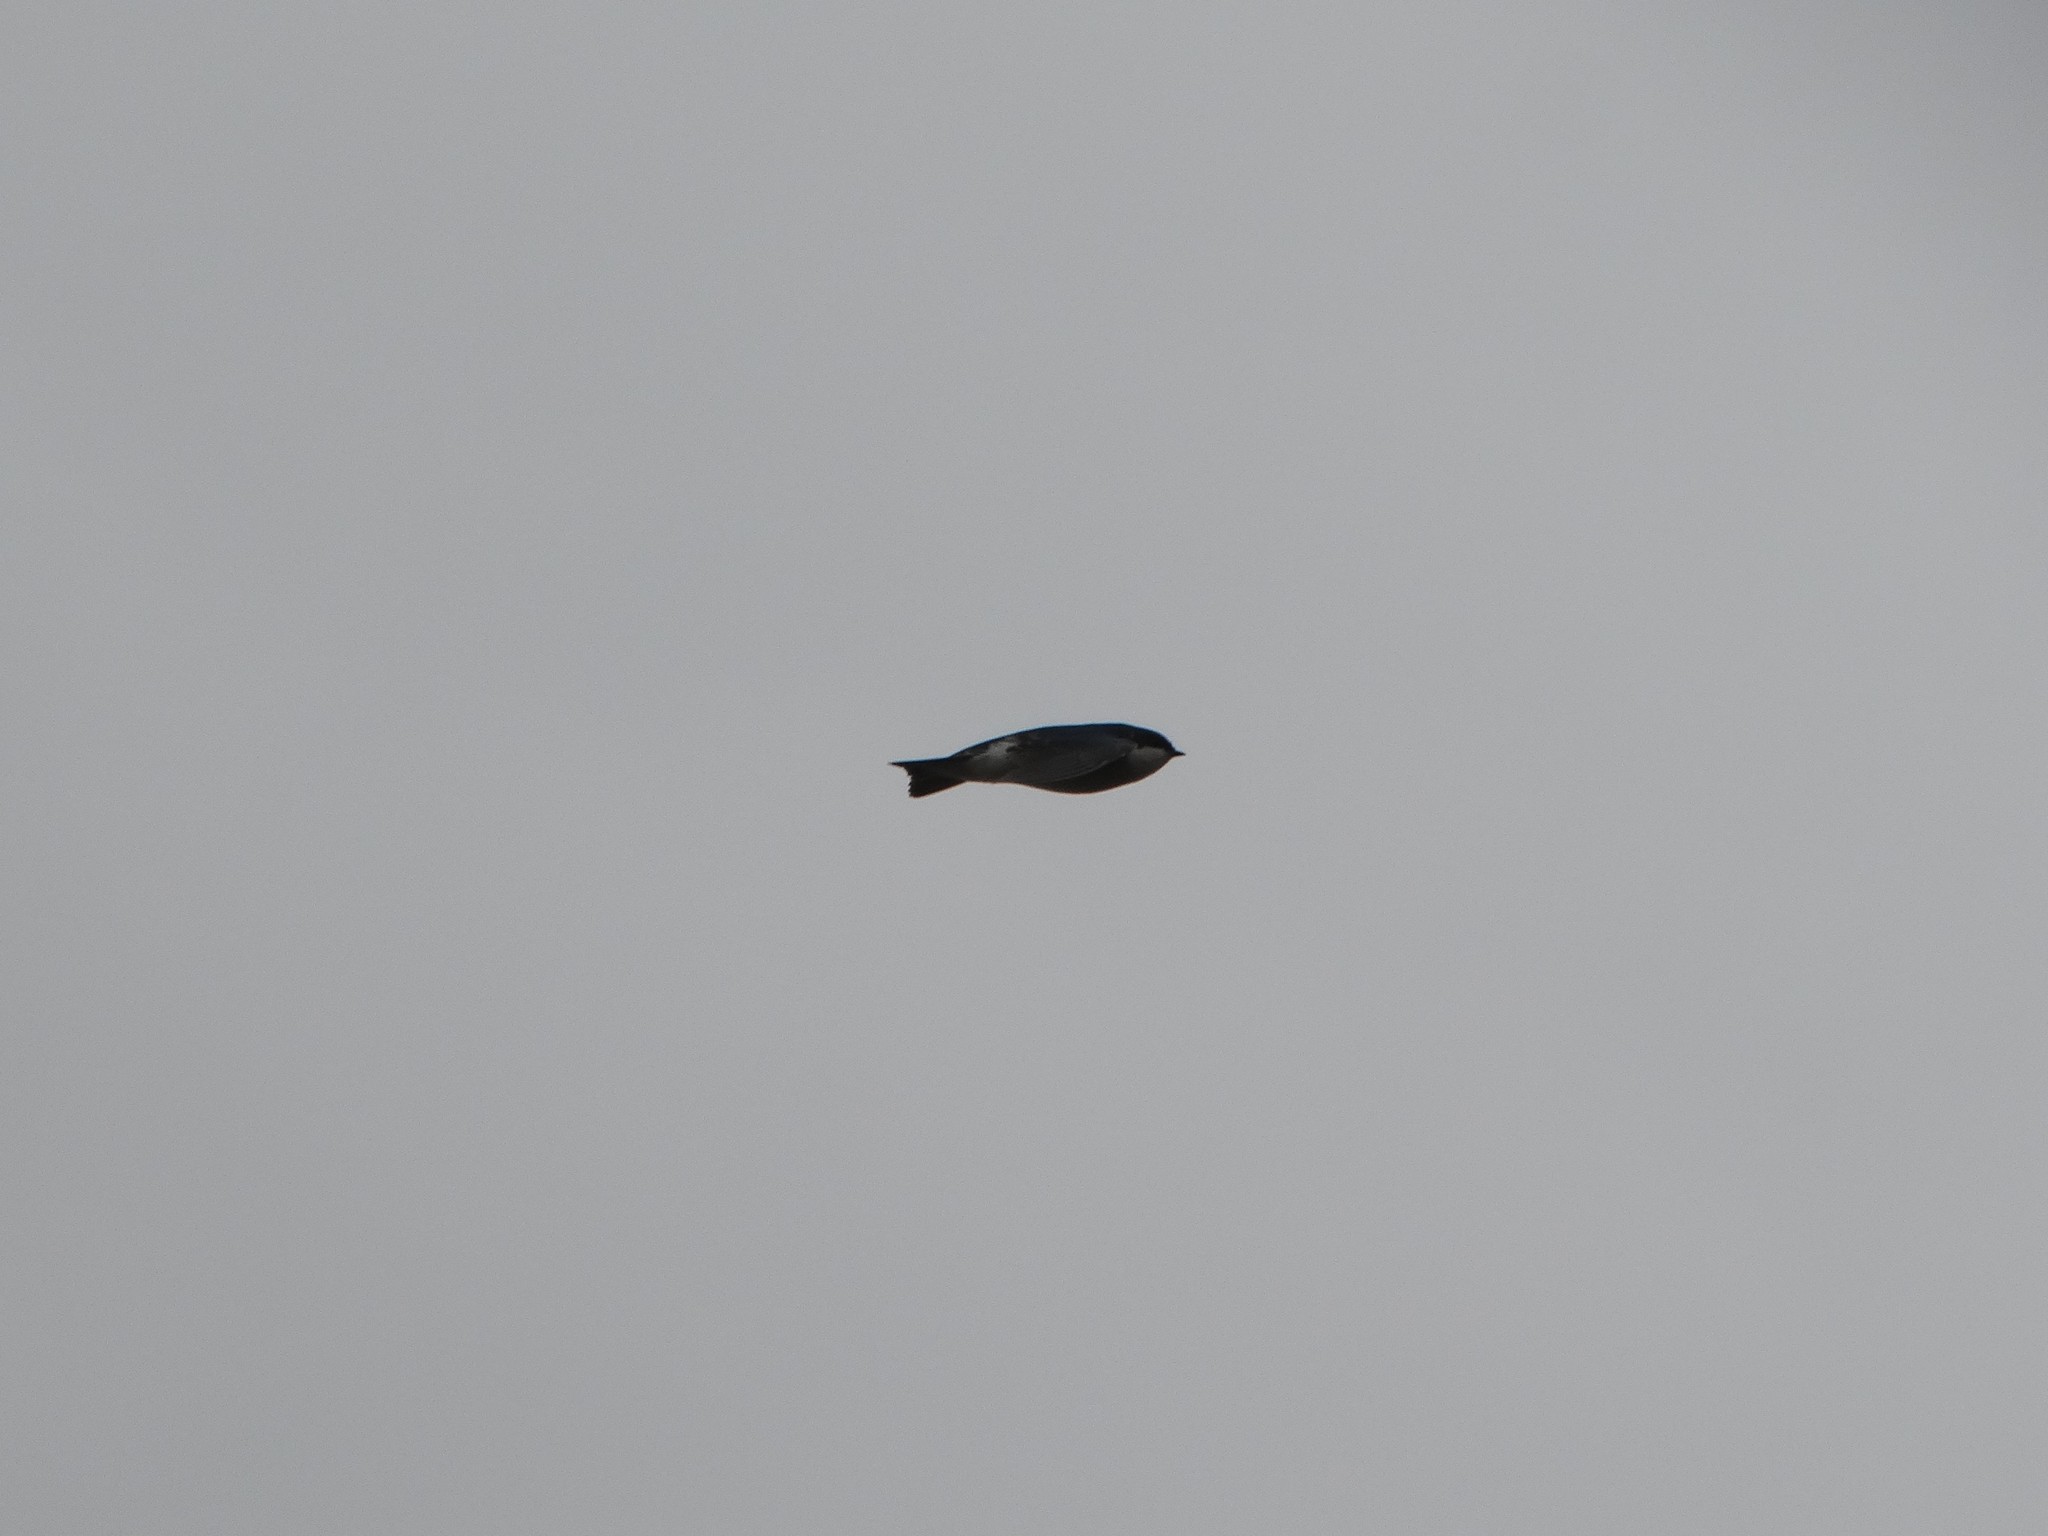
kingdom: Animalia
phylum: Chordata
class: Aves
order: Passeriformes
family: Hirundinidae
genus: Tachycineta
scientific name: Tachycineta bicolor
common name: Tree swallow
